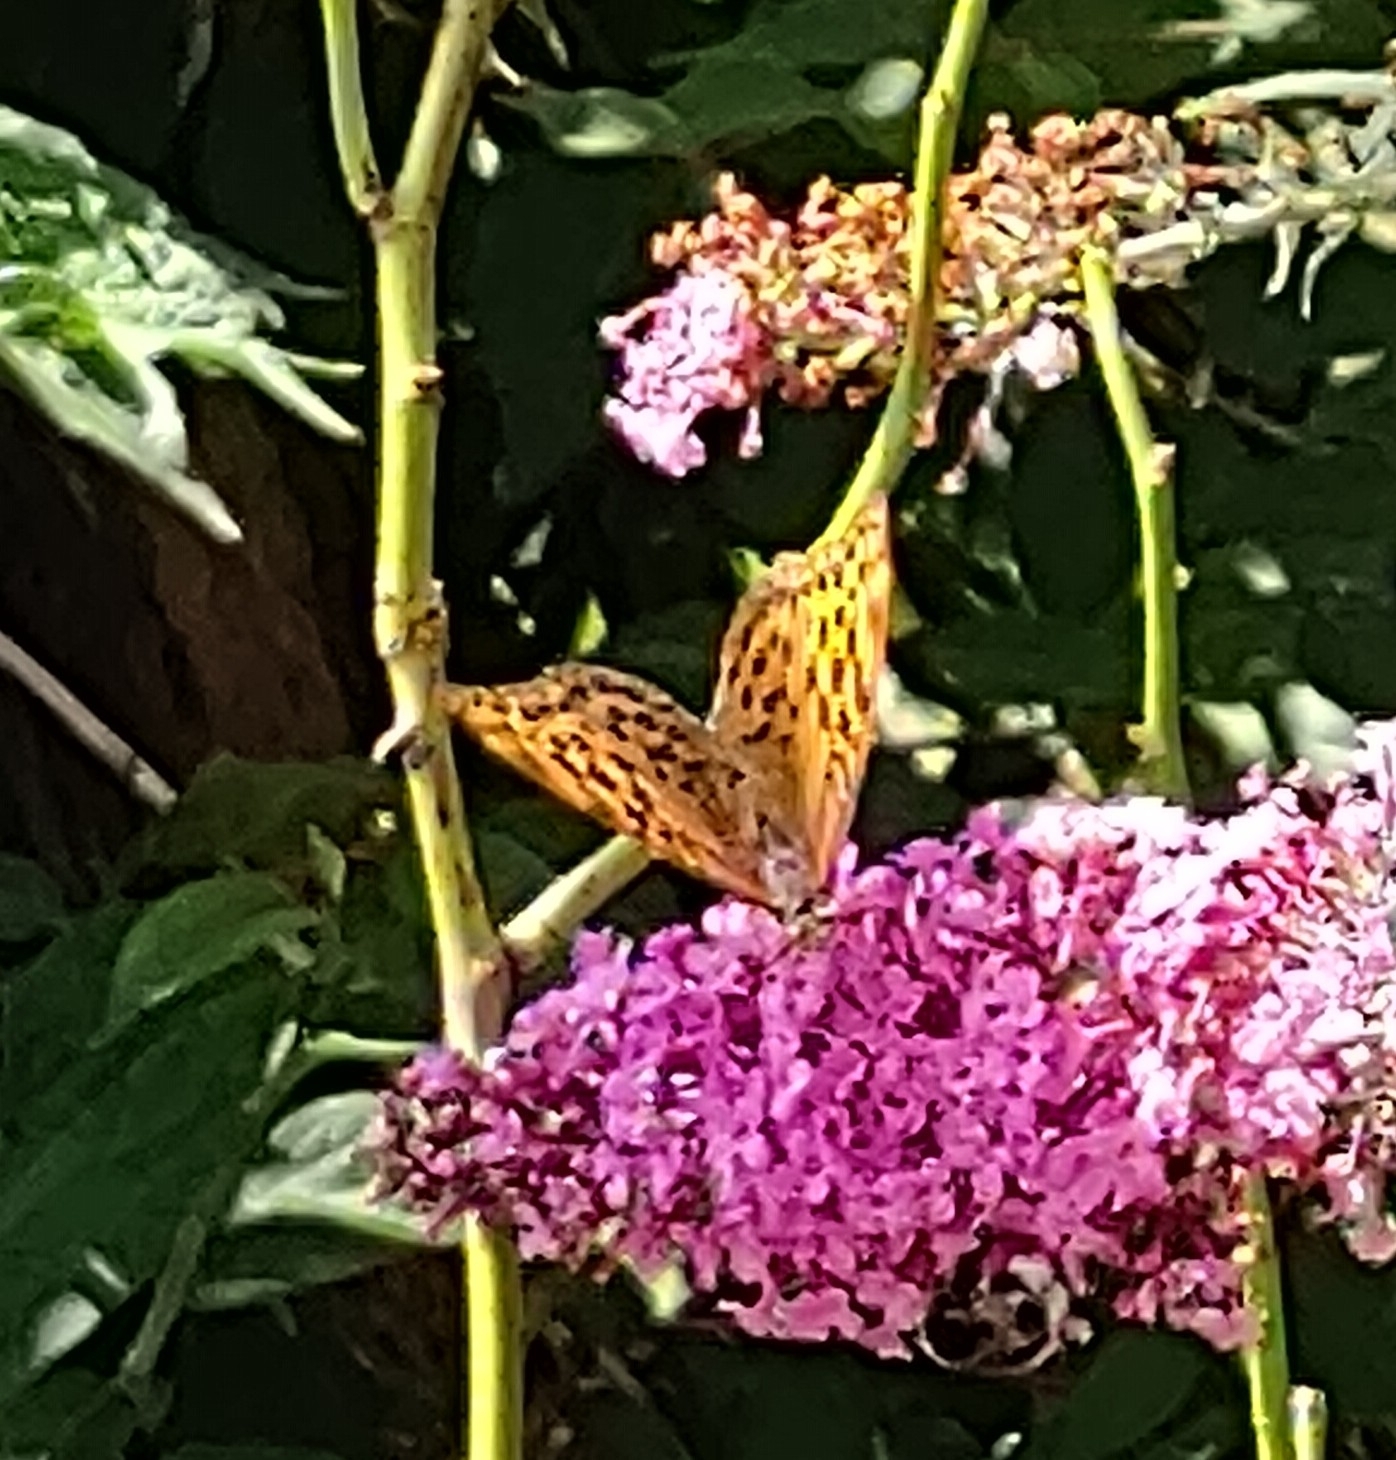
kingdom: Animalia
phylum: Arthropoda
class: Insecta
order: Lepidoptera
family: Nymphalidae
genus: Argynnis
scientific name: Argynnis paphia
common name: Silver-washed fritillary
